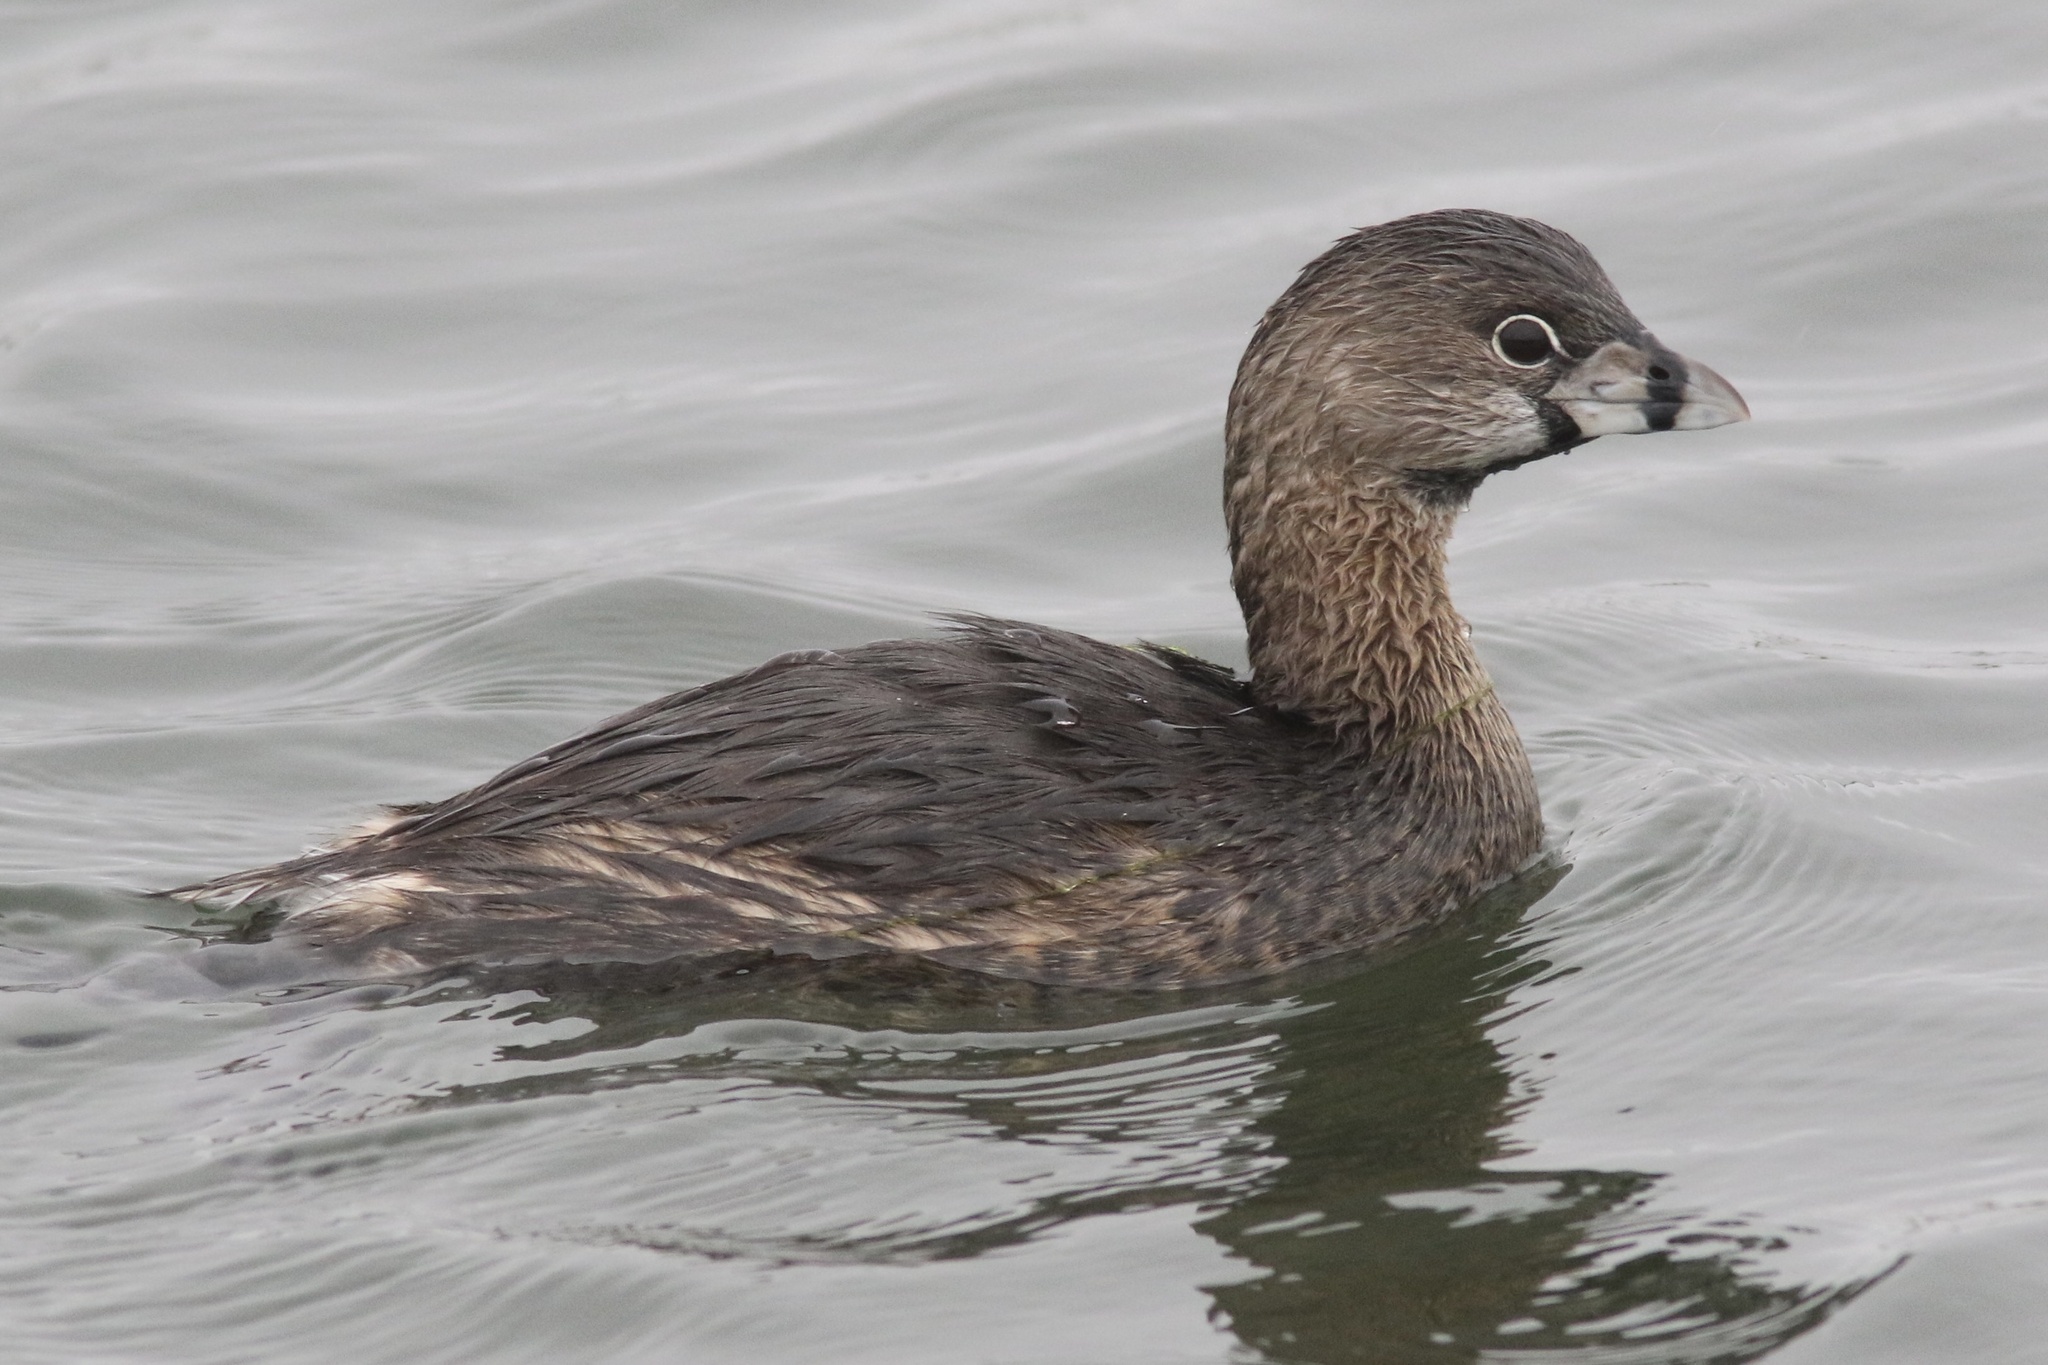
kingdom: Animalia
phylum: Chordata
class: Aves
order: Podicipediformes
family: Podicipedidae
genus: Podilymbus
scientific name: Podilymbus podiceps
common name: Pied-billed grebe
